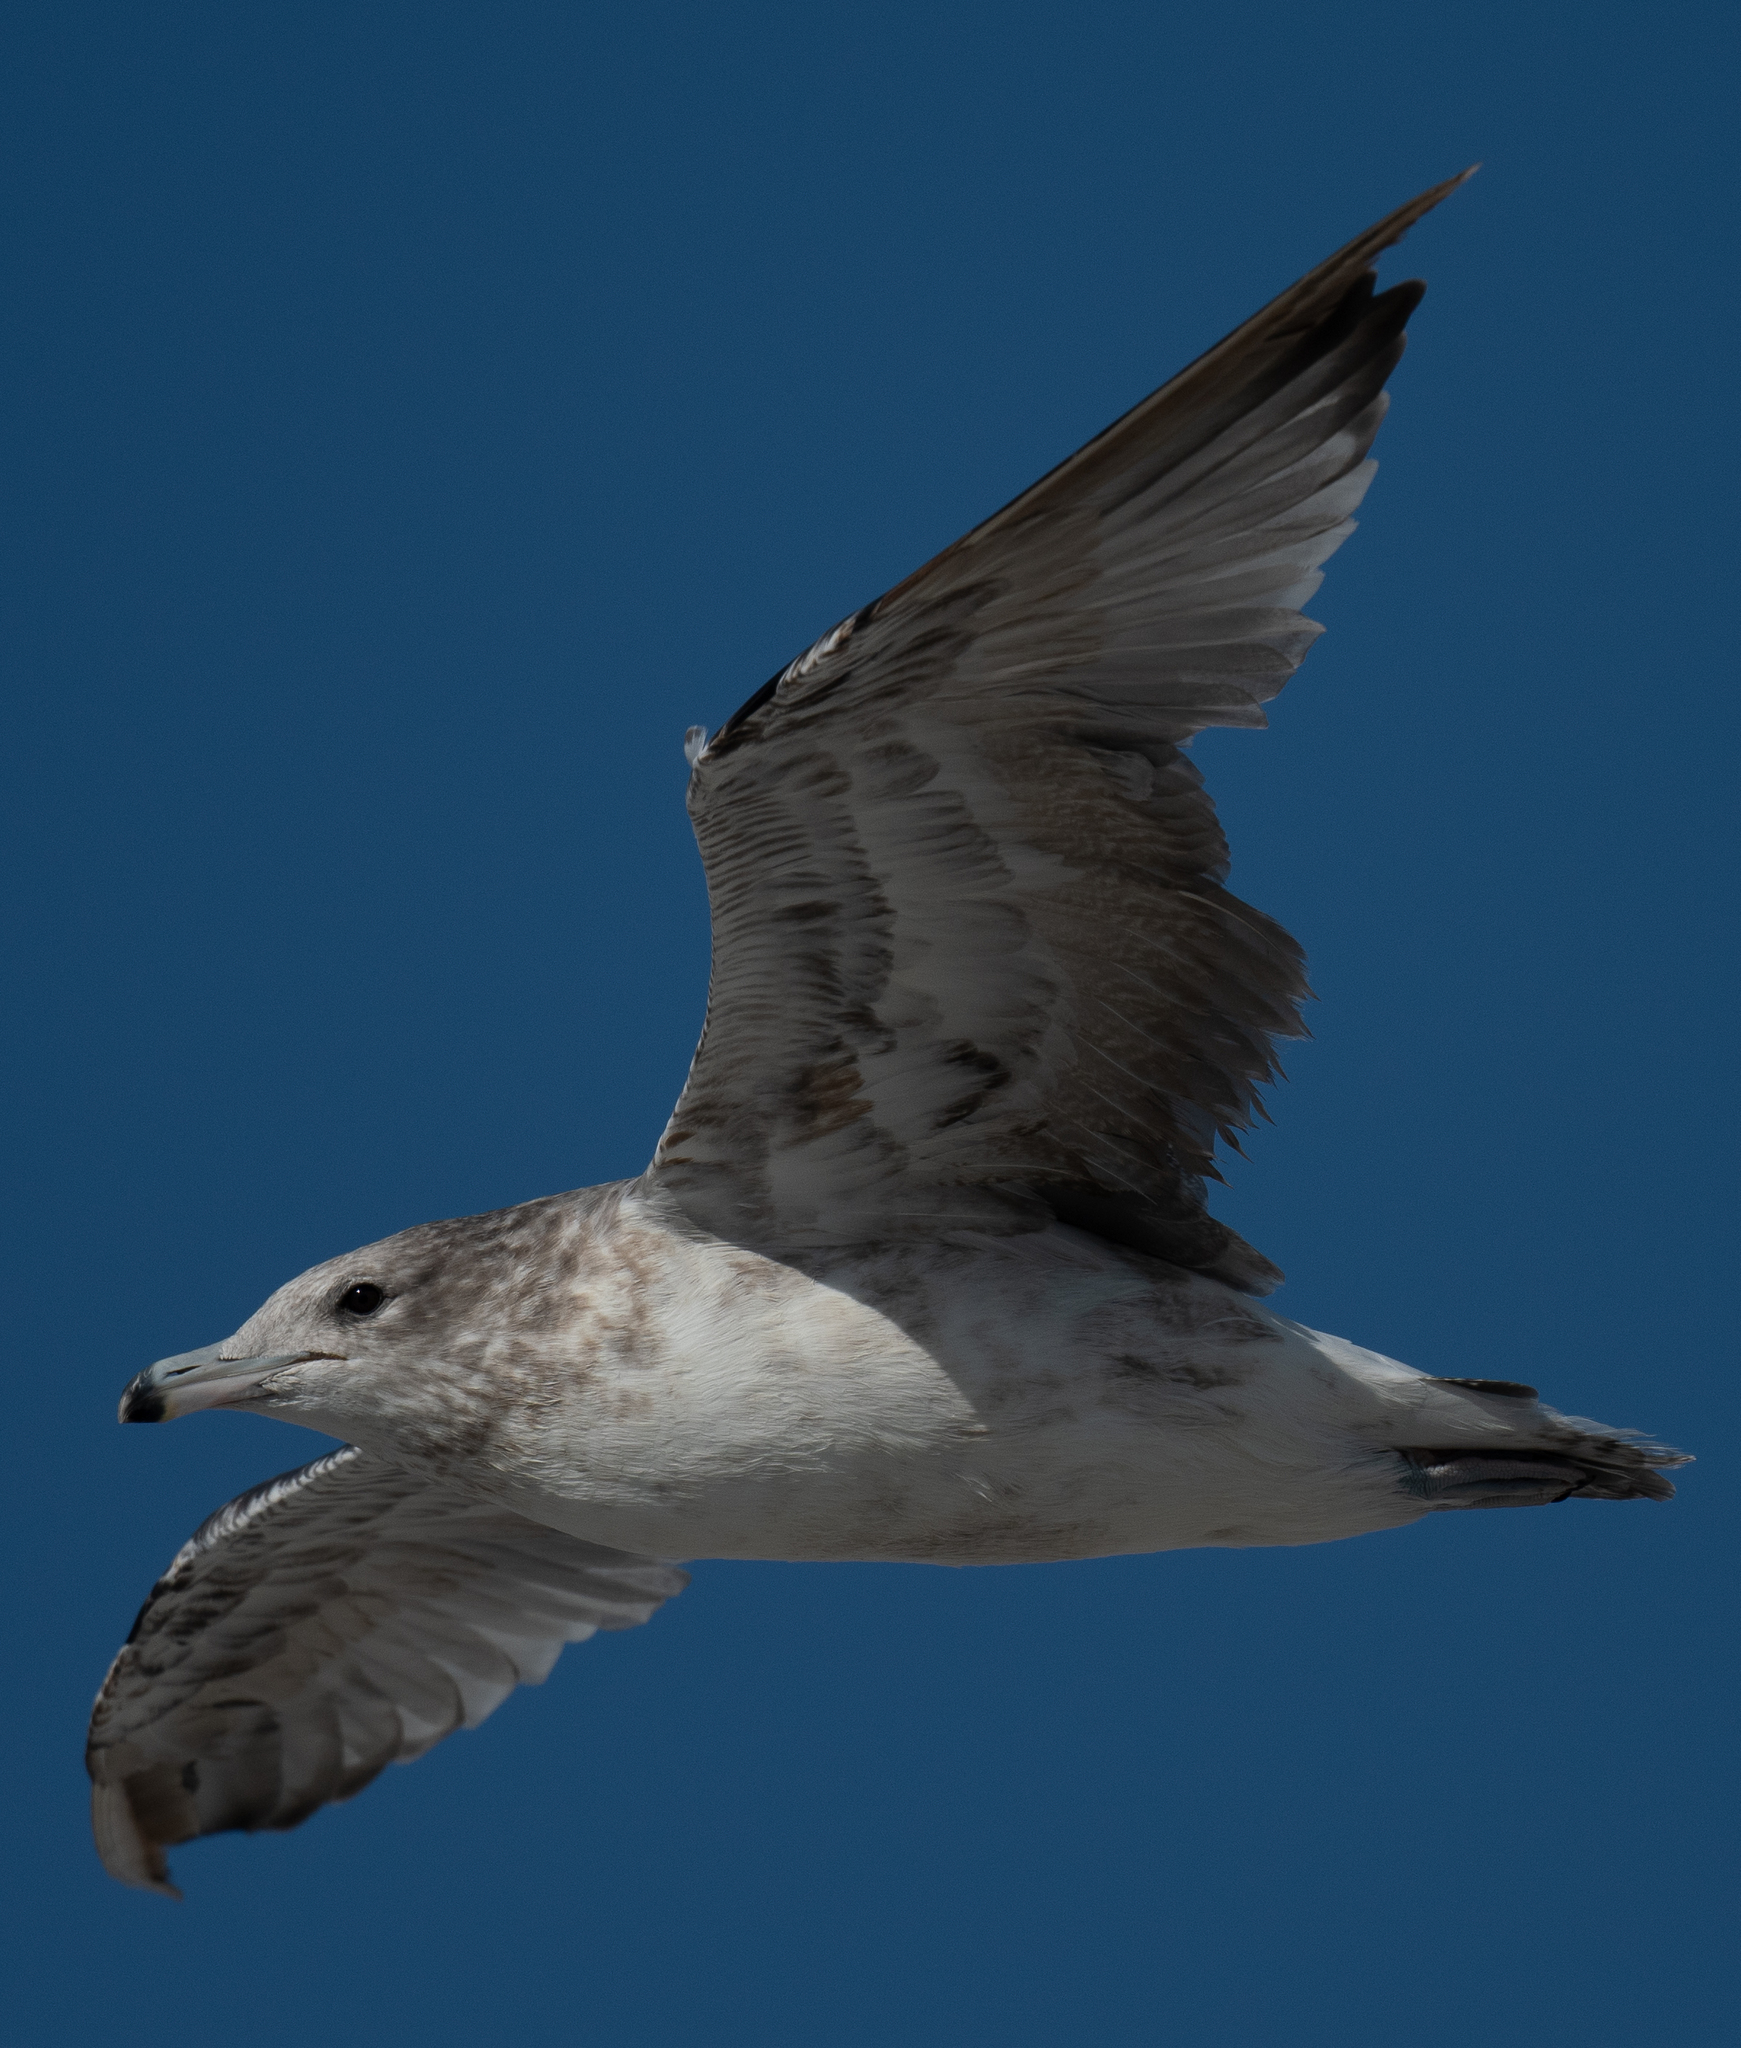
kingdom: Animalia
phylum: Chordata
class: Aves
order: Charadriiformes
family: Laridae
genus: Larus
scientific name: Larus californicus
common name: California gull
